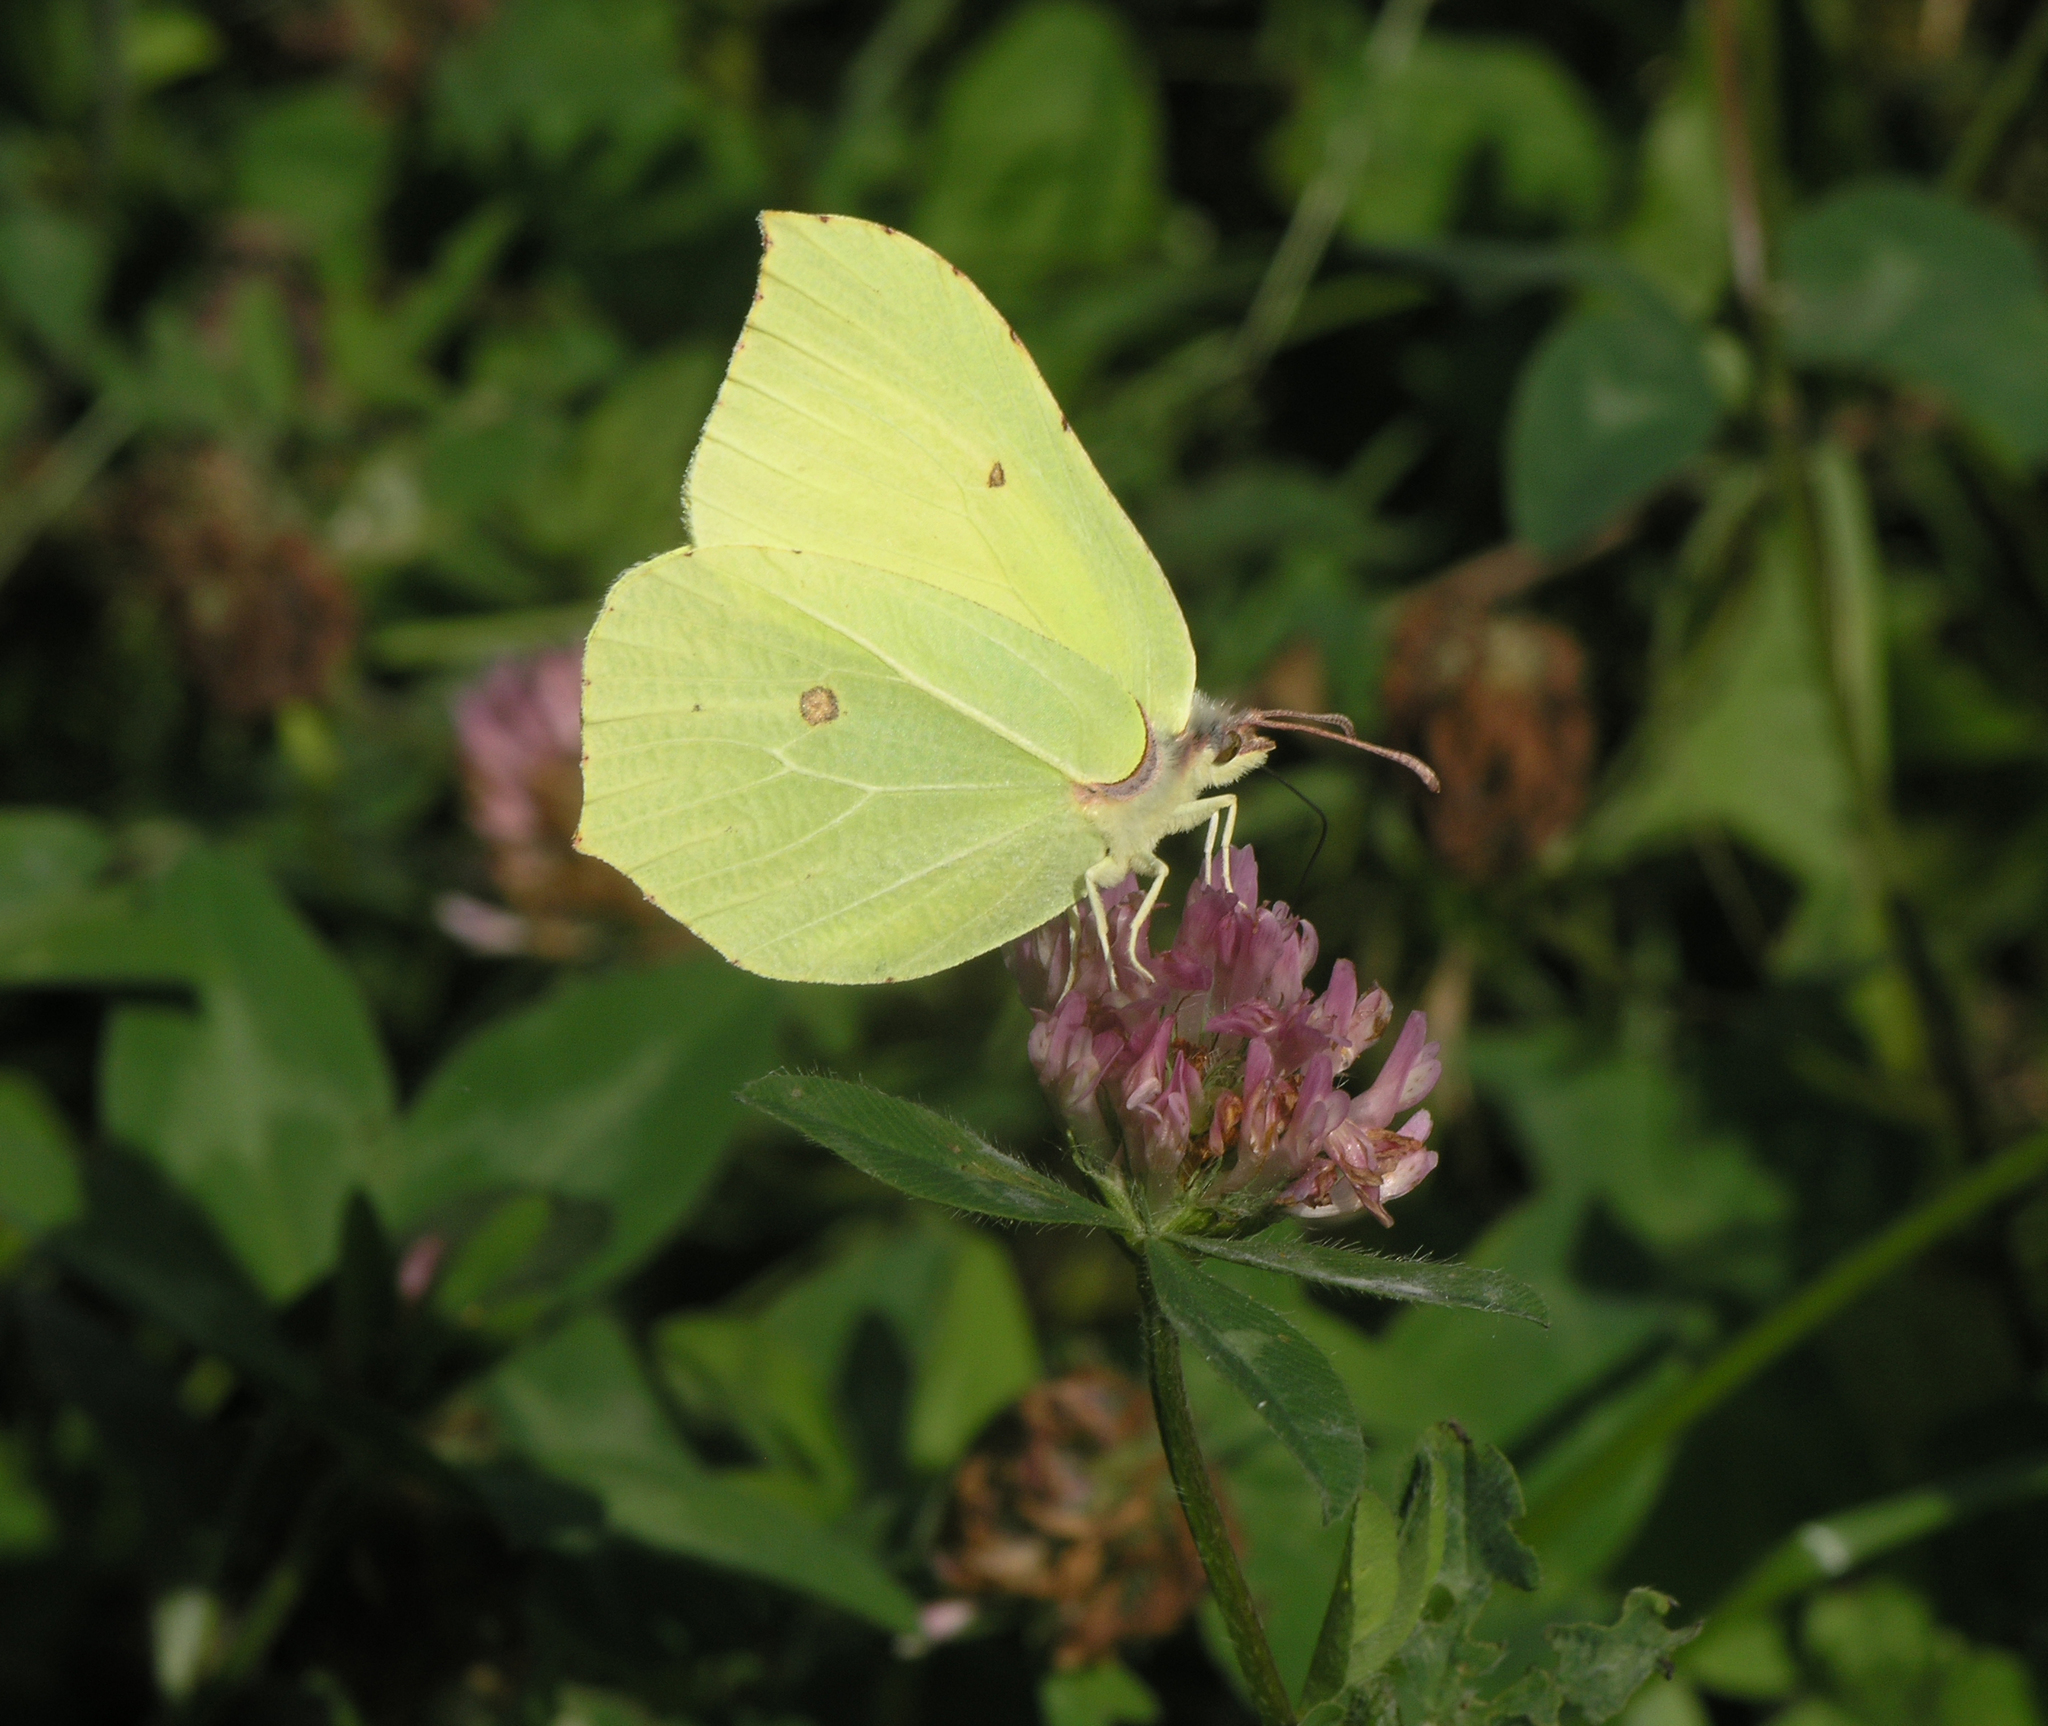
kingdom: Animalia
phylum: Arthropoda
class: Insecta
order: Lepidoptera
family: Pieridae
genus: Gonepteryx
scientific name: Gonepteryx rhamni
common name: Brimstone
